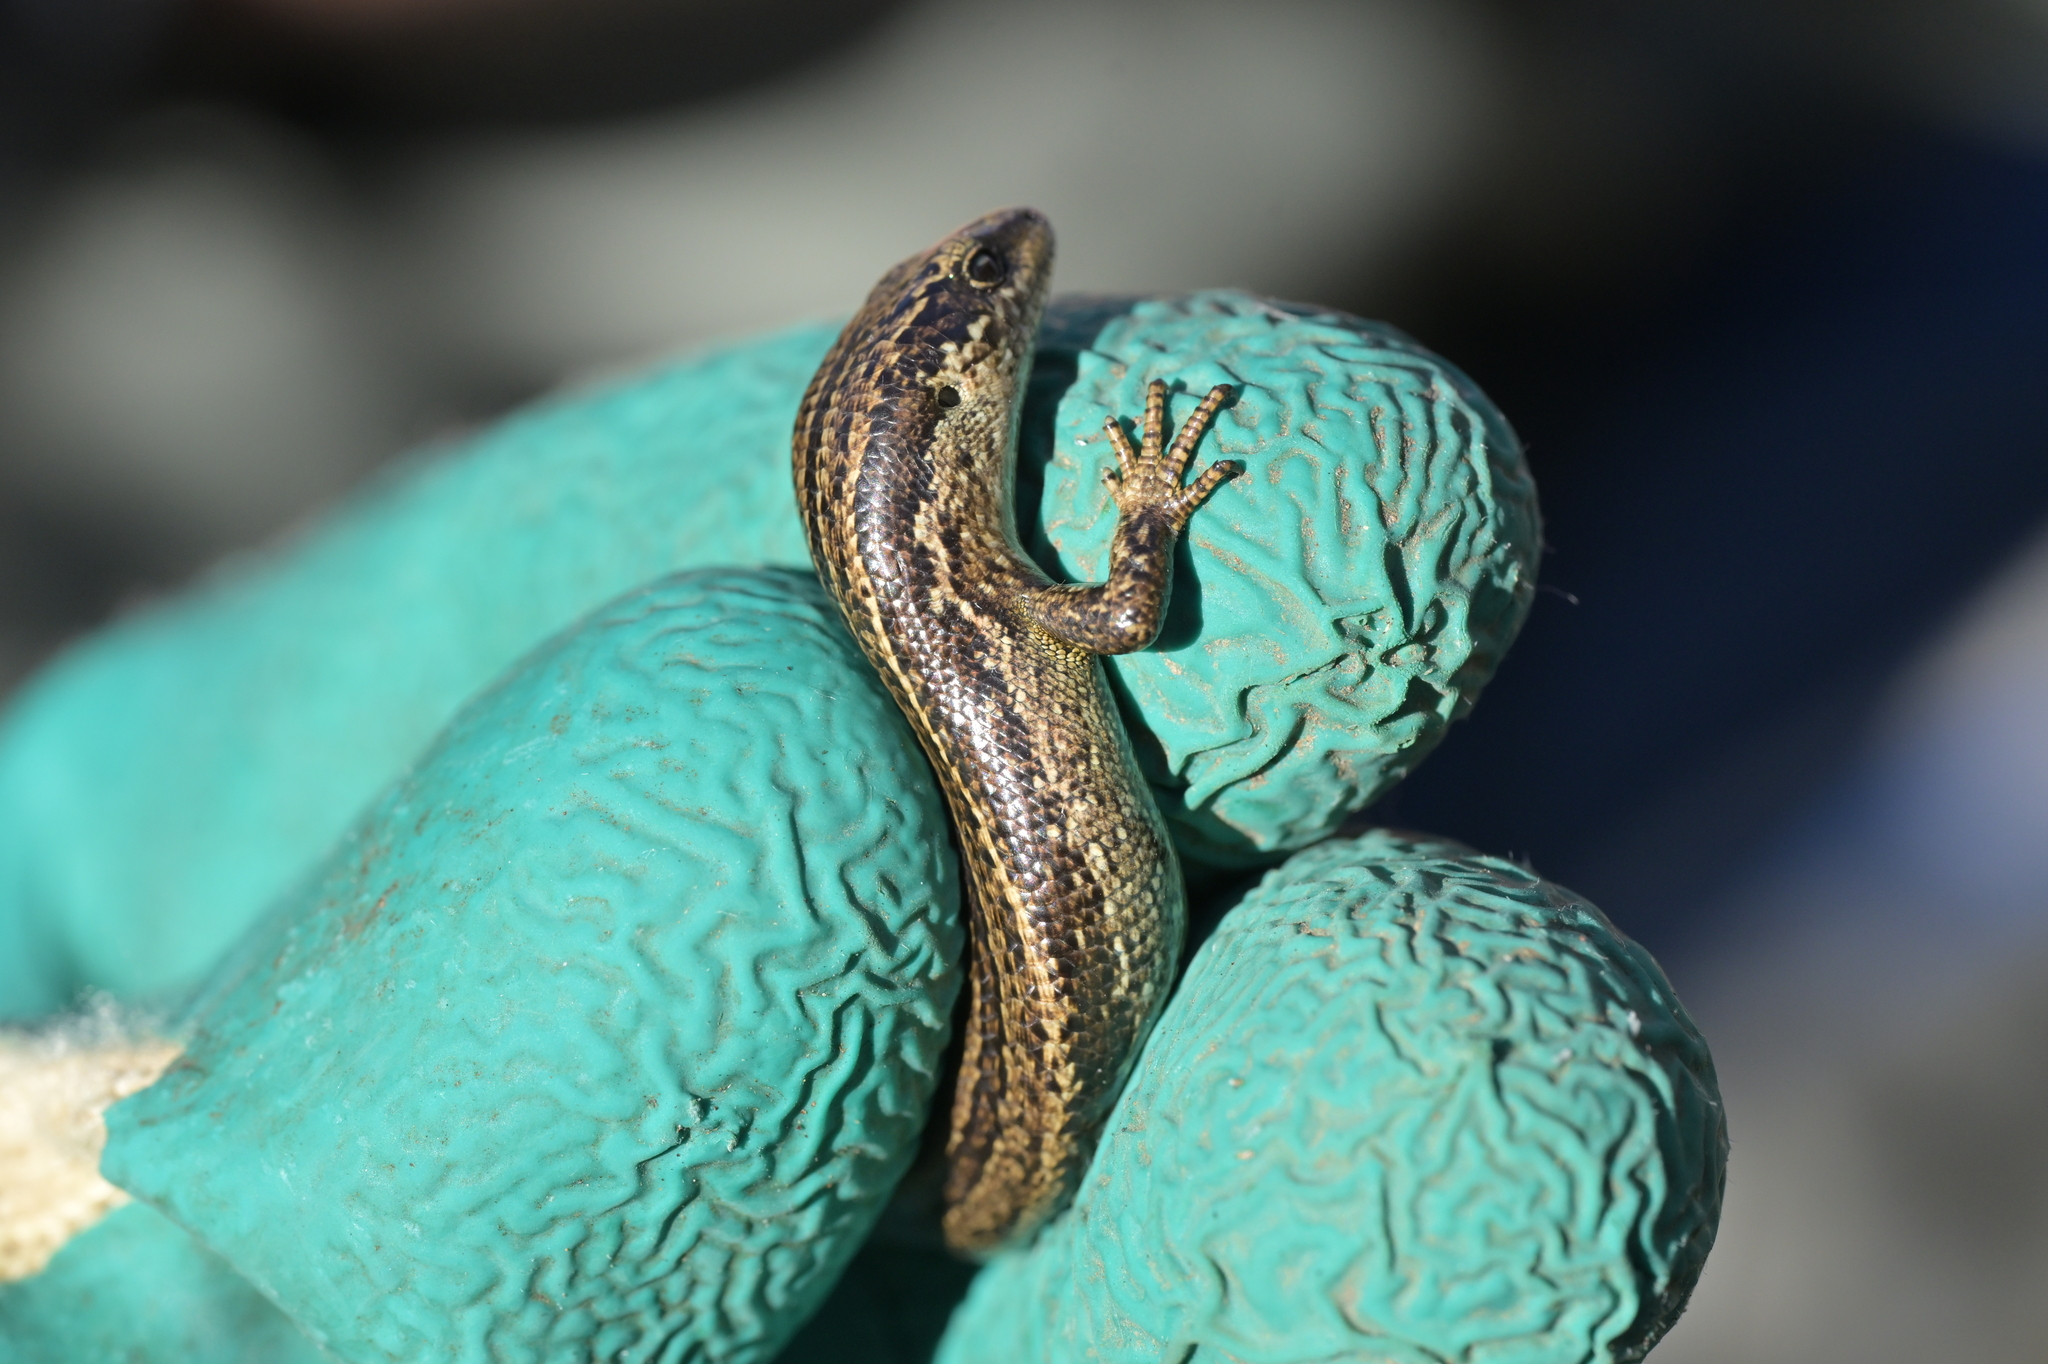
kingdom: Animalia
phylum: Chordata
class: Squamata
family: Scincidae
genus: Oligosoma
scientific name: Oligosoma polychroma
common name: Common new zealand skink
